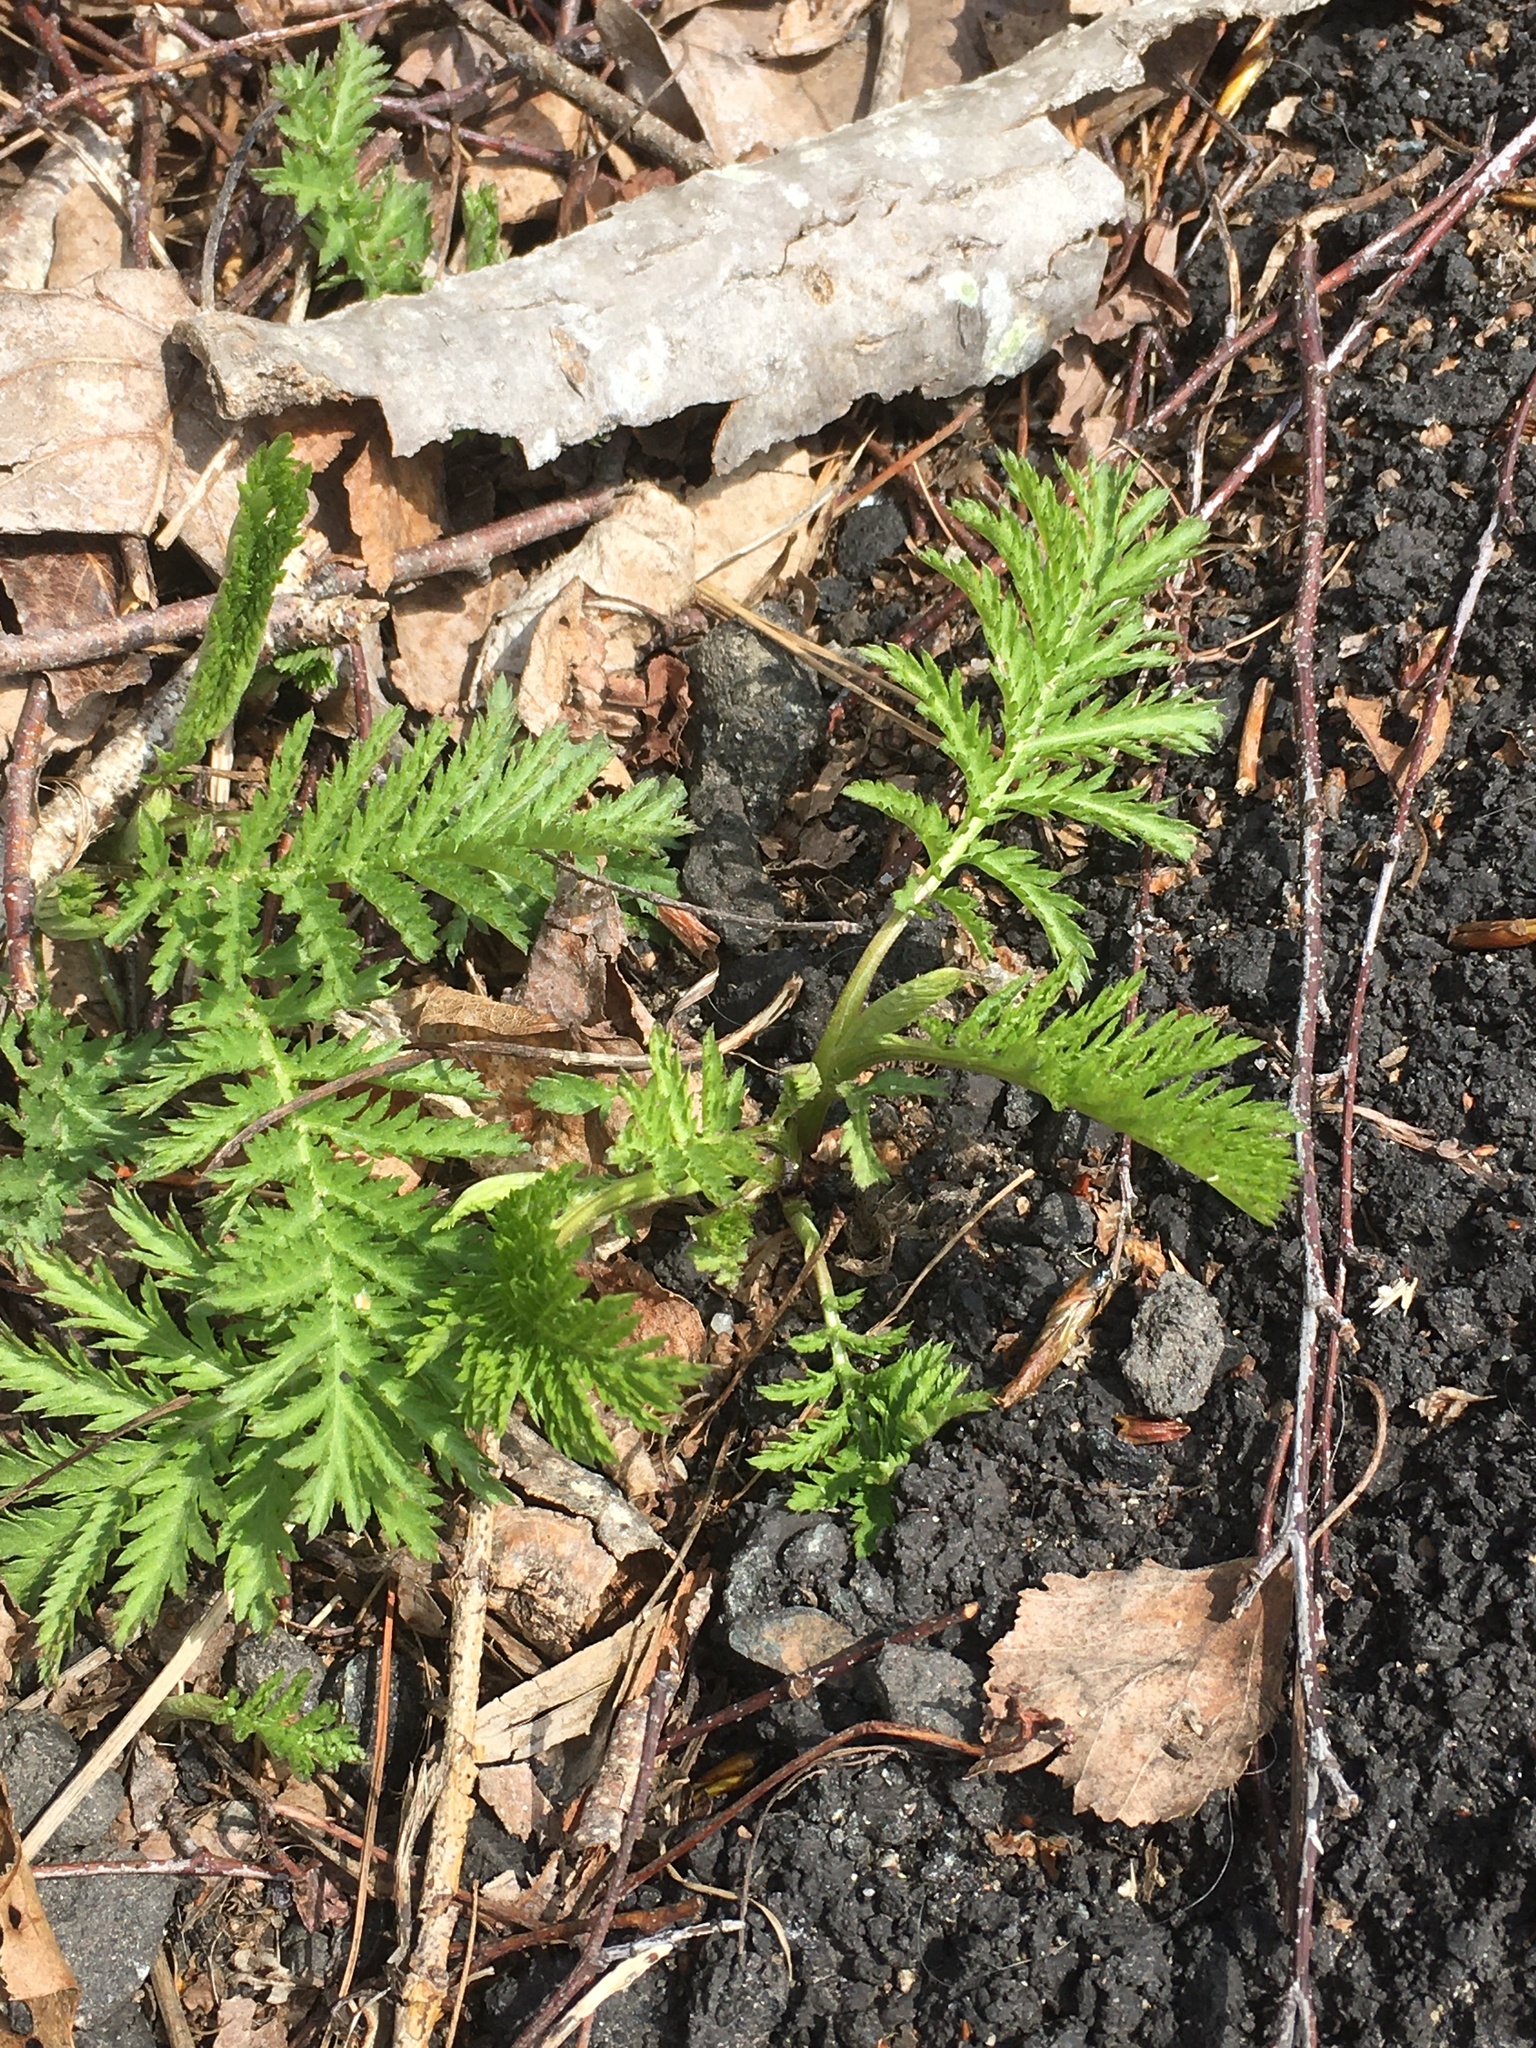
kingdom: Plantae
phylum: Tracheophyta
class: Magnoliopsida
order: Asterales
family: Asteraceae
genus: Tanacetum
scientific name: Tanacetum vulgare
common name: Common tansy
